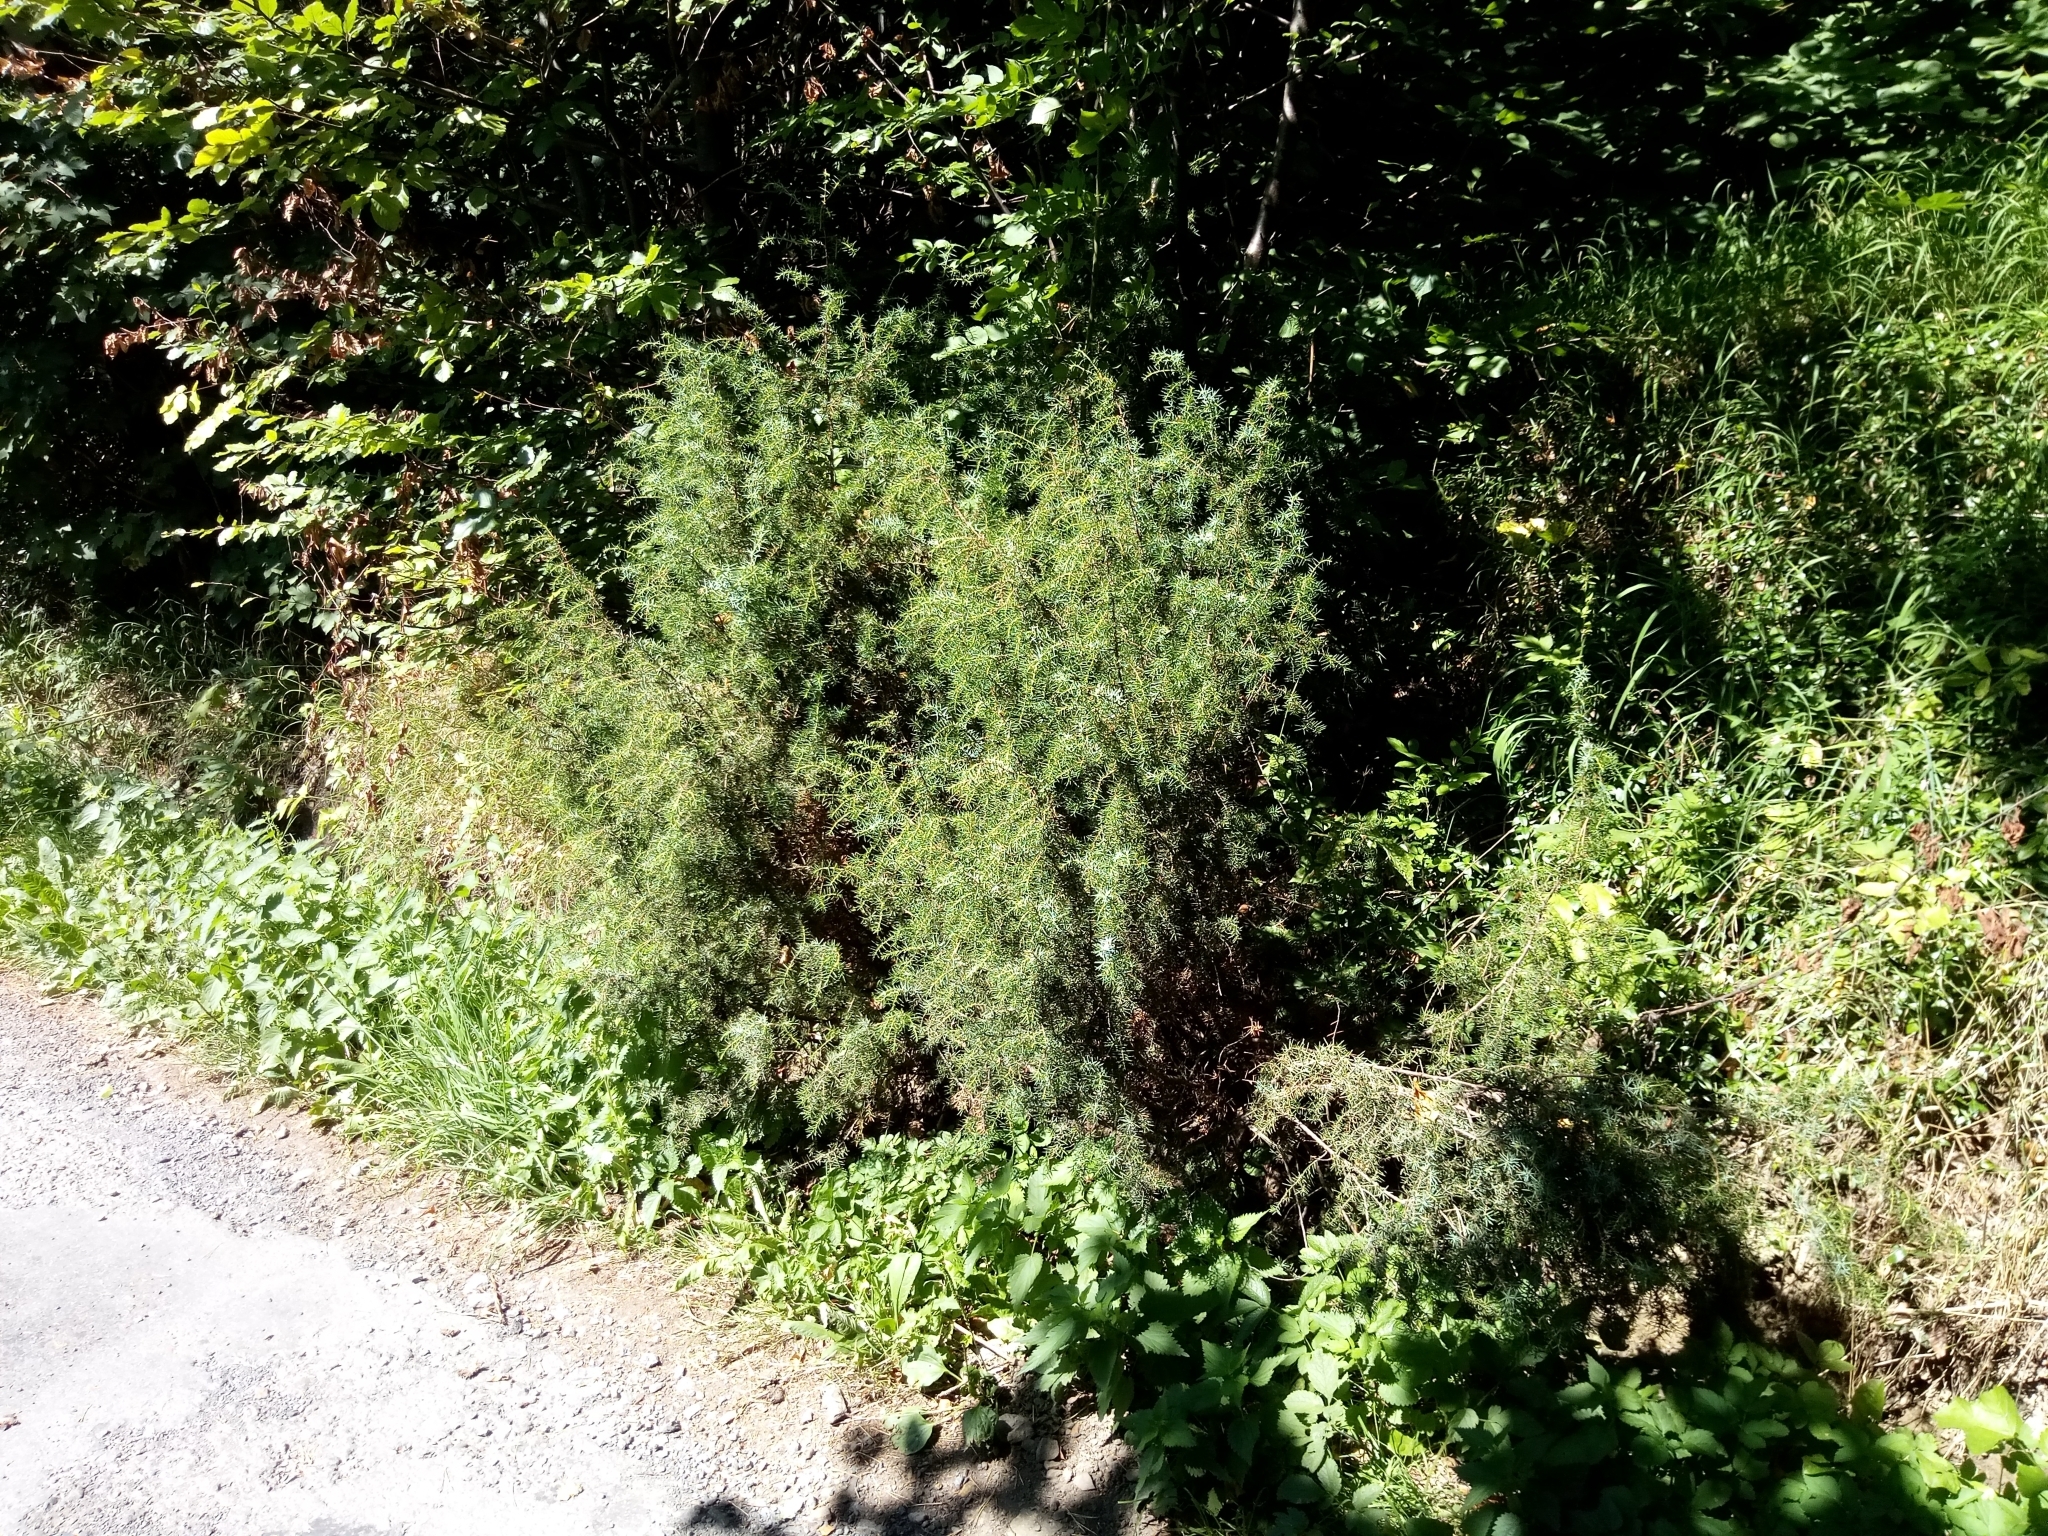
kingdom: Plantae
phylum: Tracheophyta
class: Pinopsida
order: Pinales
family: Cupressaceae
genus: Juniperus
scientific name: Juniperus communis
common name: Common juniper
